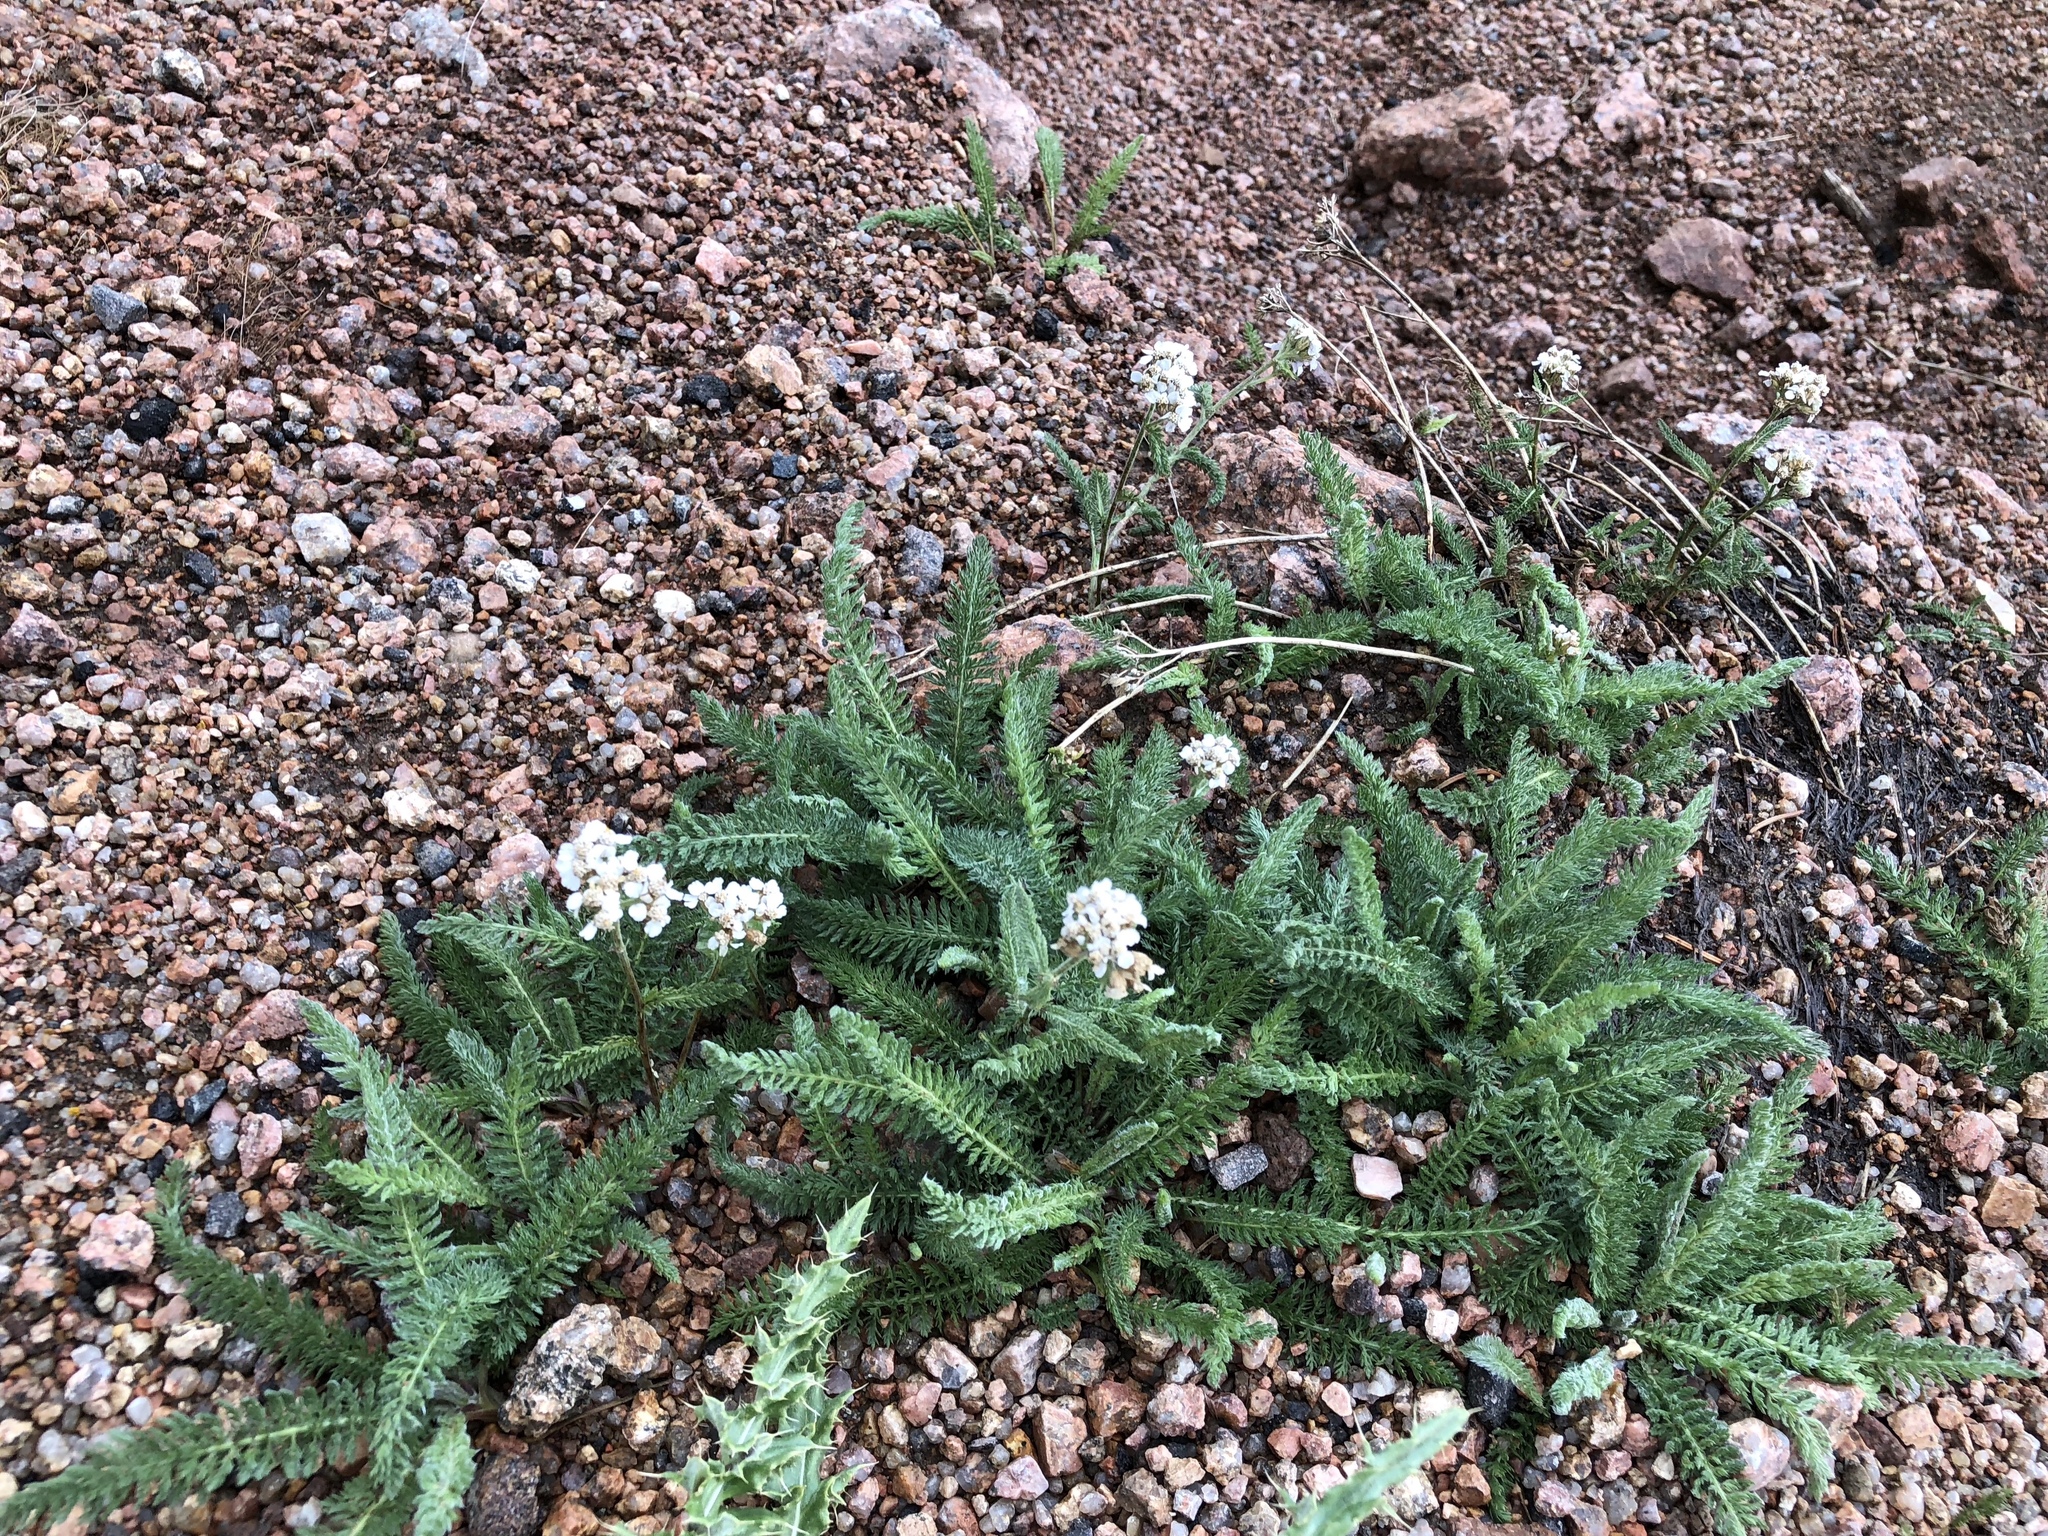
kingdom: Plantae
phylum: Tracheophyta
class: Magnoliopsida
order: Asterales
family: Asteraceae
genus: Achillea
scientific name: Achillea millefolium
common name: Yarrow
